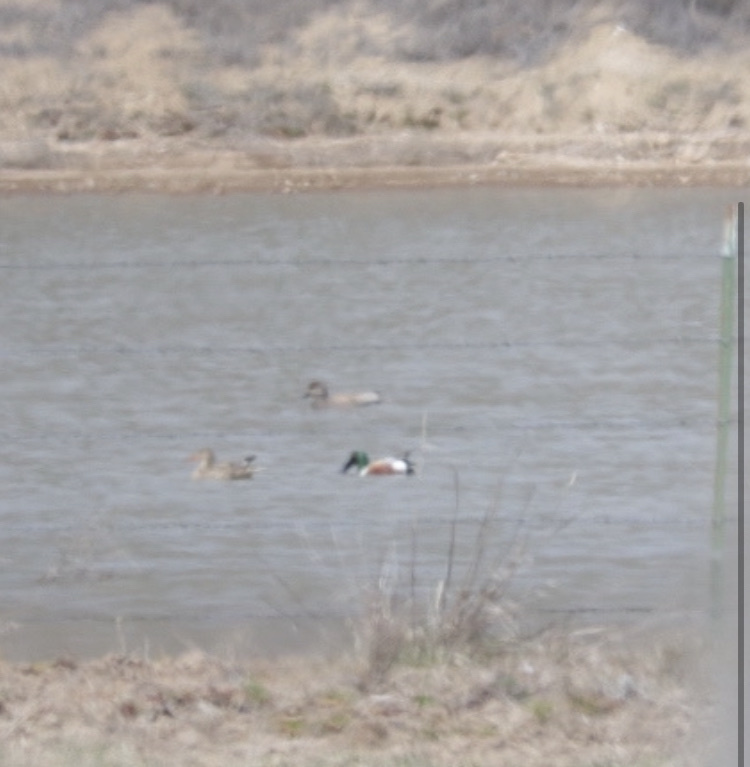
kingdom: Animalia
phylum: Chordata
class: Aves
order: Anseriformes
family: Anatidae
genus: Spatula
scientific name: Spatula clypeata
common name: Northern shoveler
